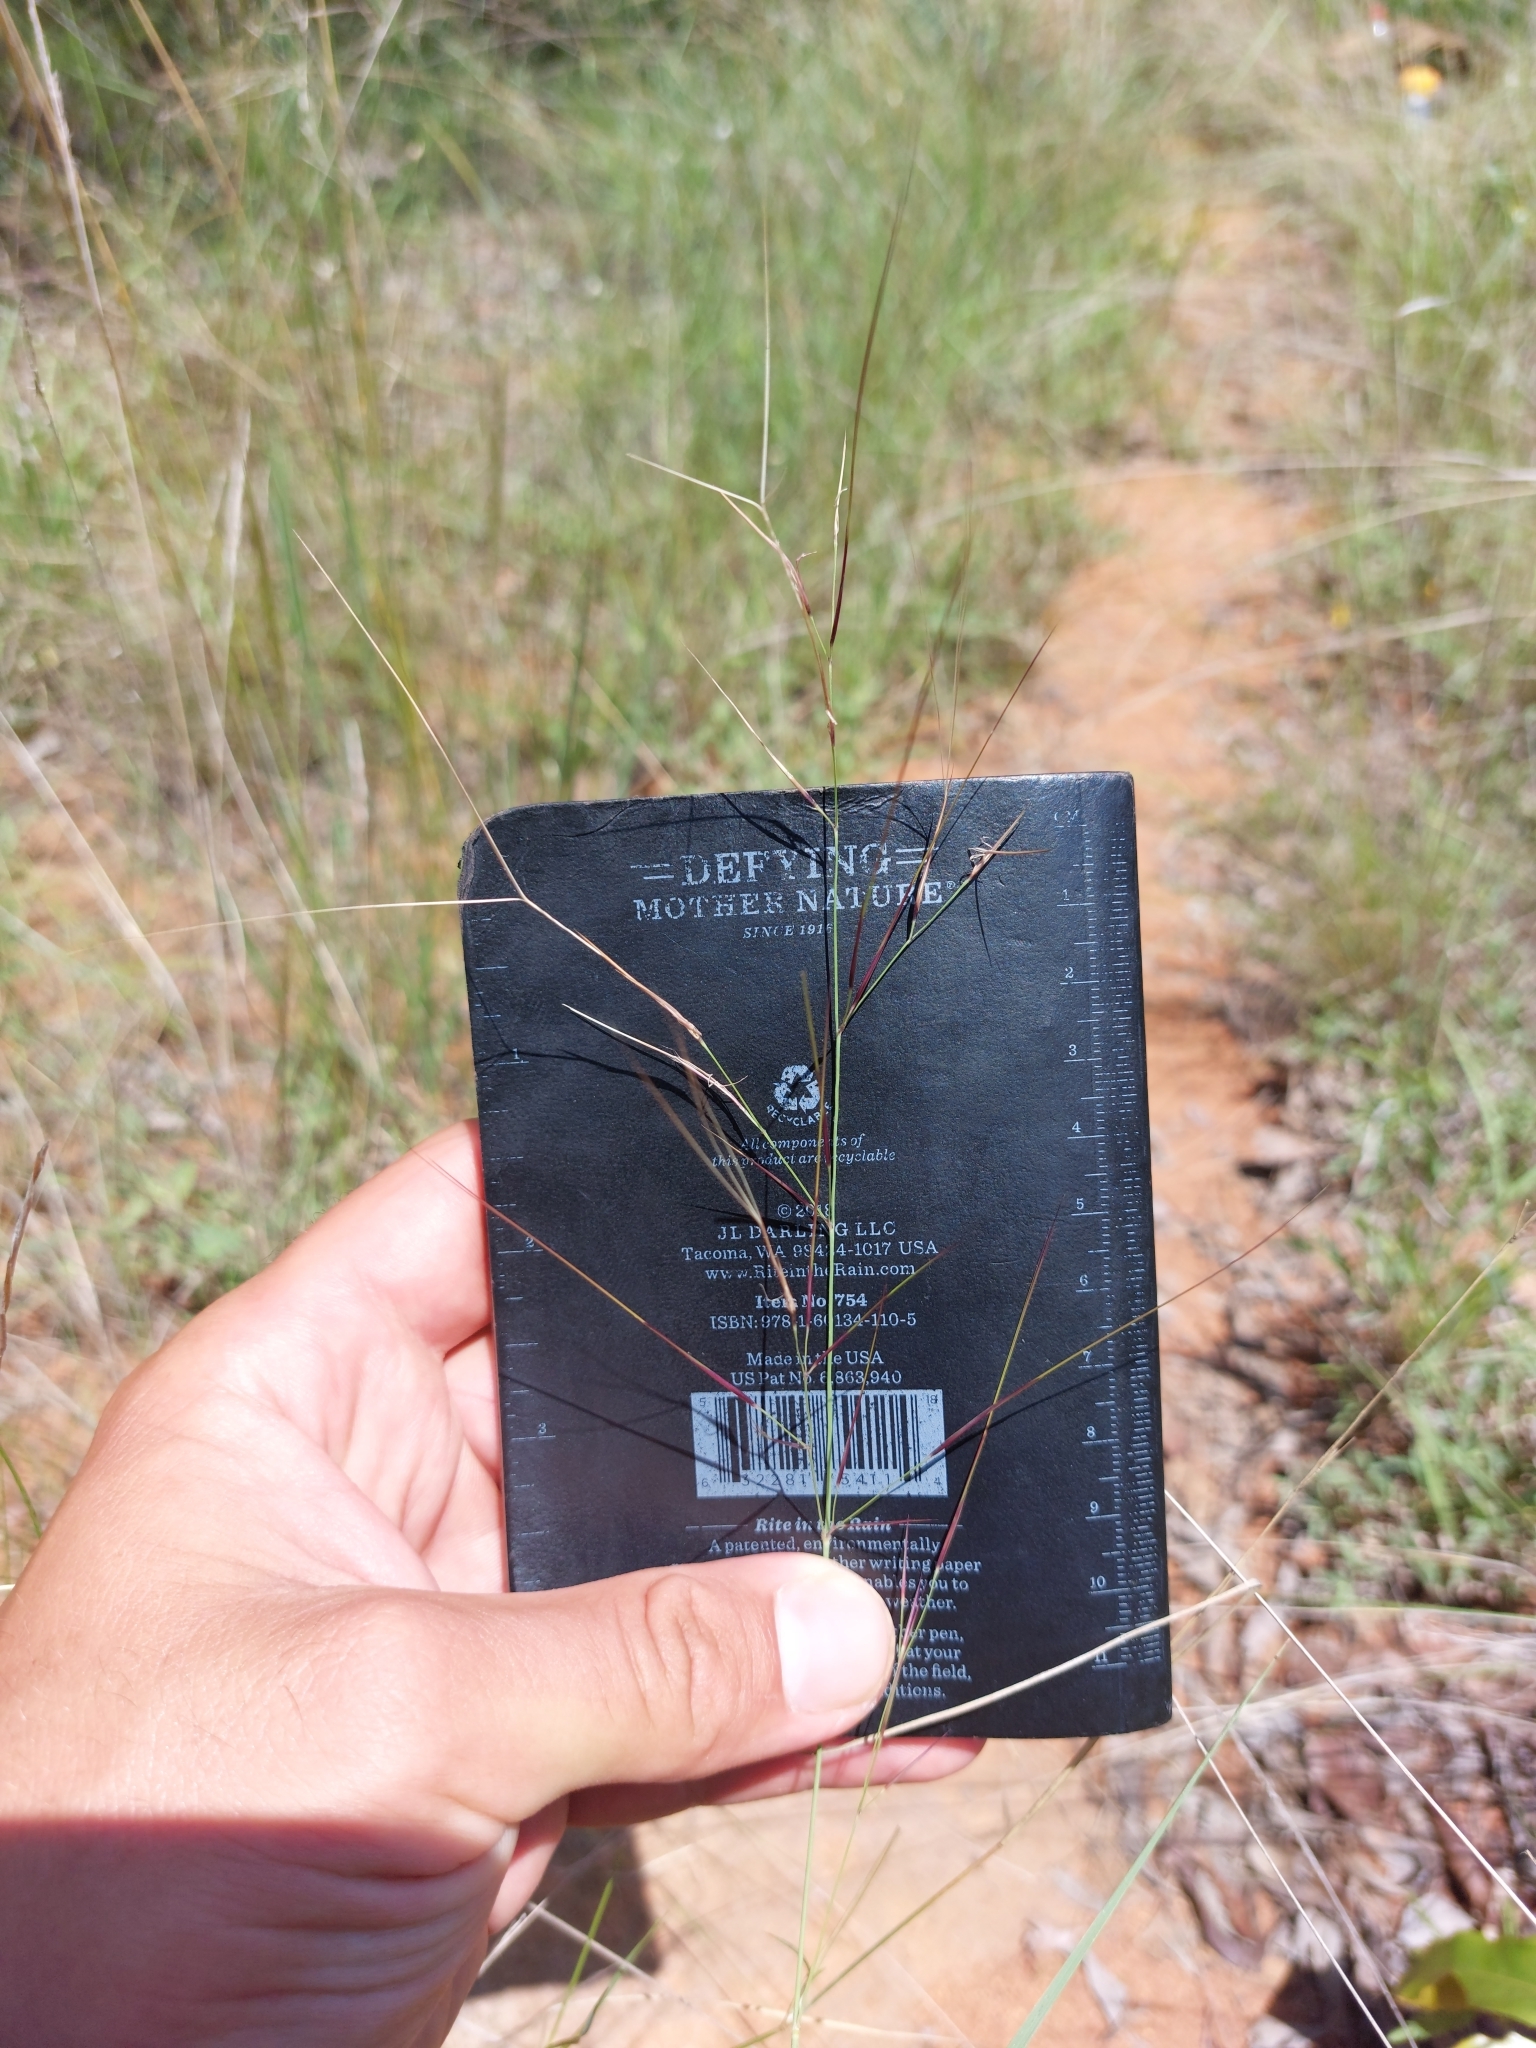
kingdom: Plantae
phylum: Tracheophyta
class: Liliopsida
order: Poales
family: Poaceae
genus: Aristida
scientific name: Aristida diffusa
